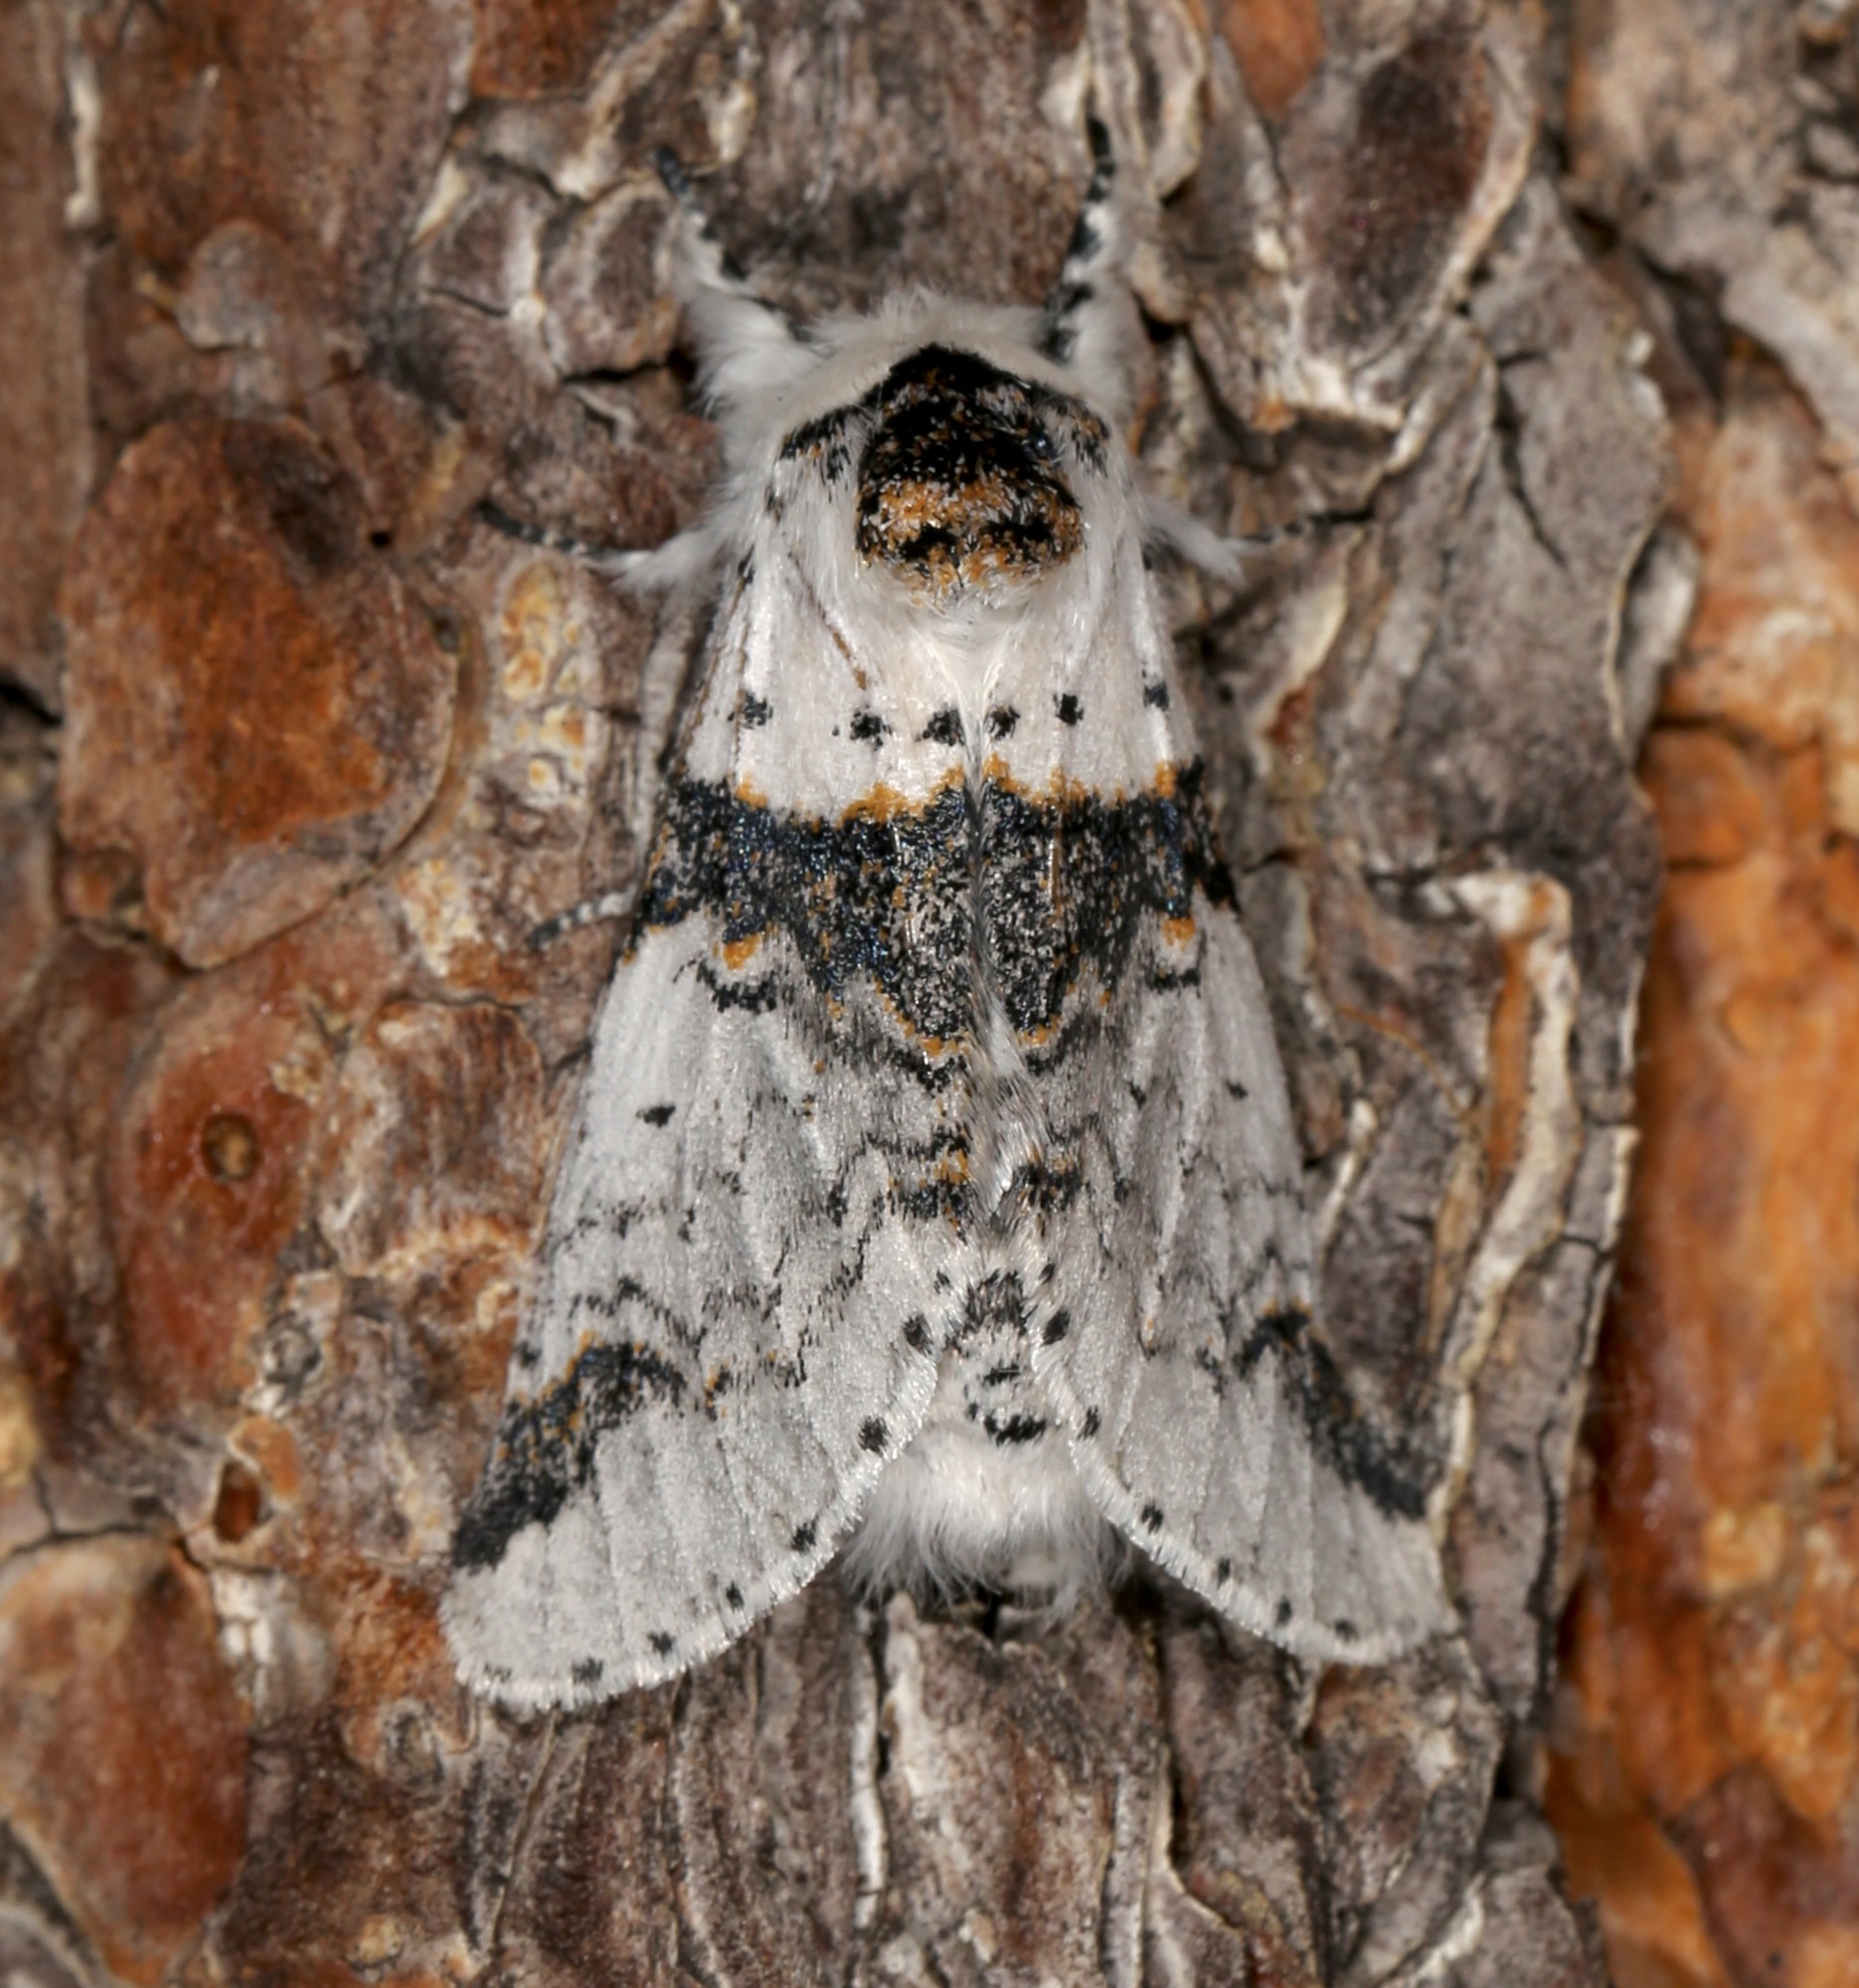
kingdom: Animalia
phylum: Arthropoda
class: Insecta
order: Lepidoptera
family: Notodontidae
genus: Furcula
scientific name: Furcula scolopendrina
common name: Zigzag furcula moth
